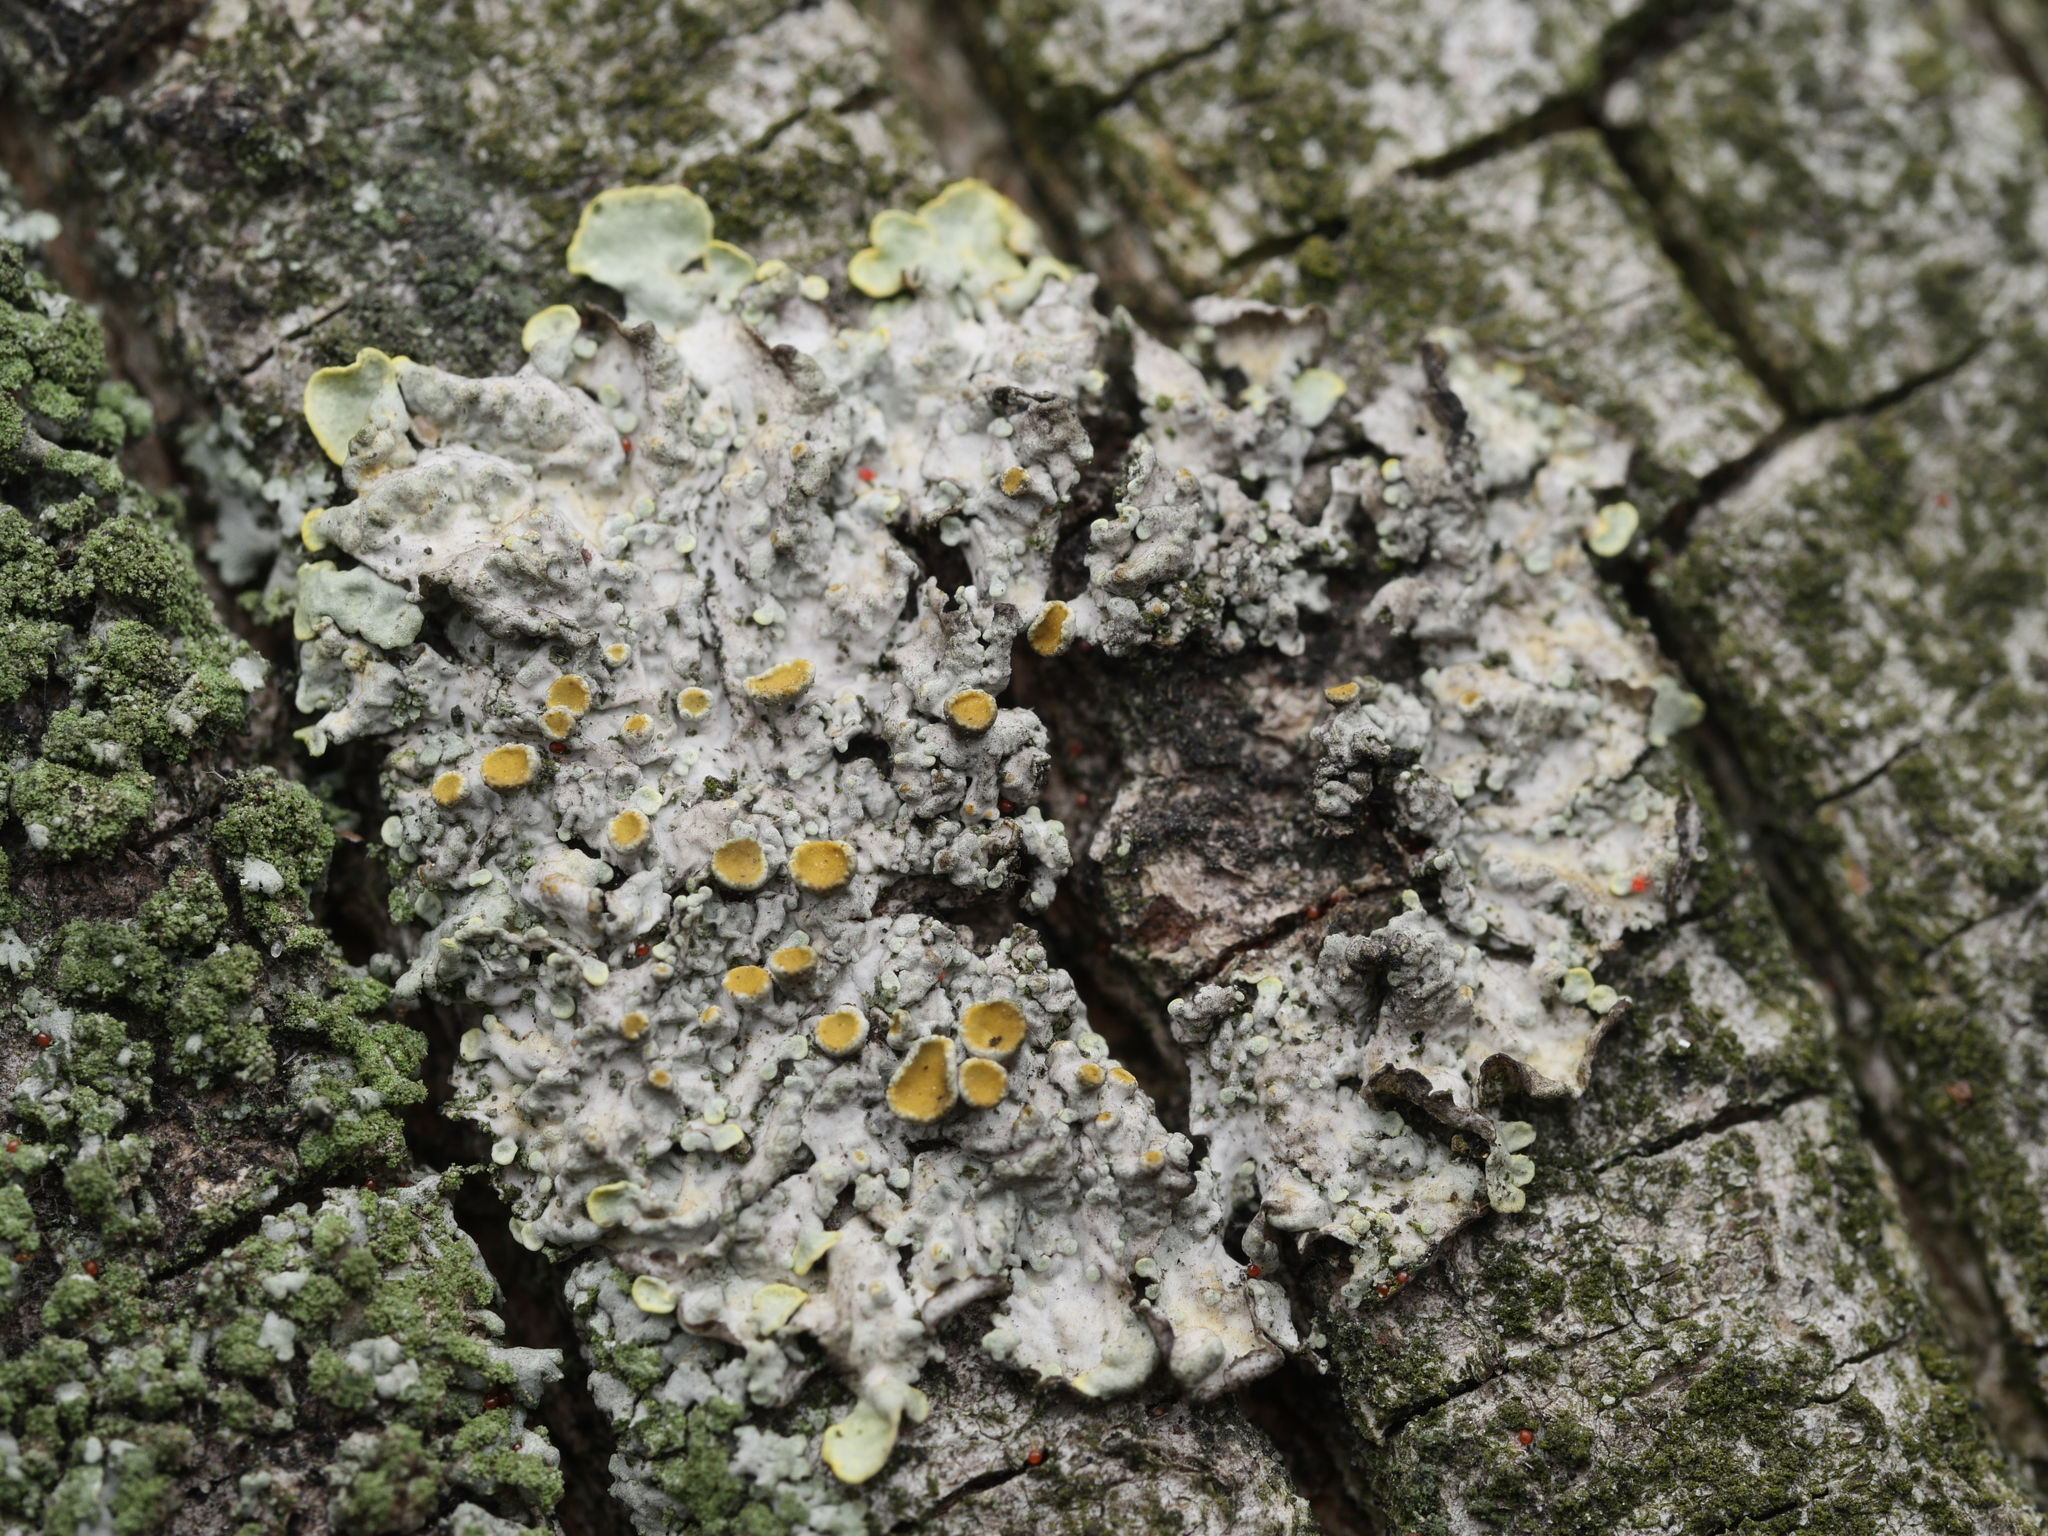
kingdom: Fungi
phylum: Ascomycota
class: Lecanoromycetes
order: Teloschistales
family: Teloschistaceae
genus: Xanthoria
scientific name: Xanthoria parietina
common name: Common orange lichen
